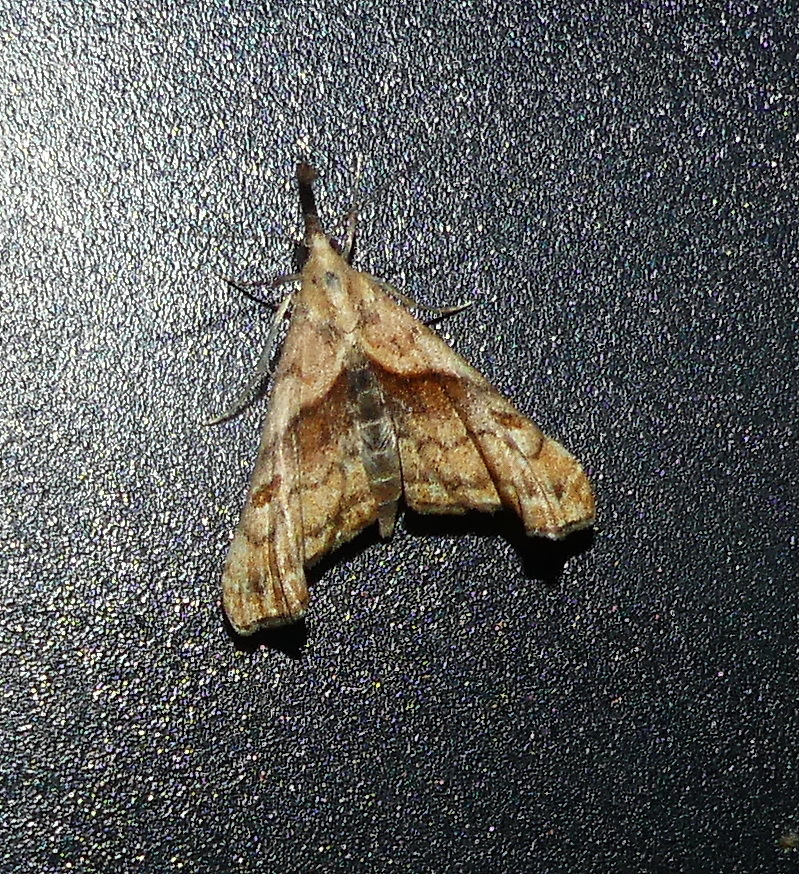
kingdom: Animalia
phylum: Arthropoda
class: Insecta
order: Lepidoptera
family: Erebidae
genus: Palthis
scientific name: Palthis angulalis
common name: Dark-spotted palthis moth
